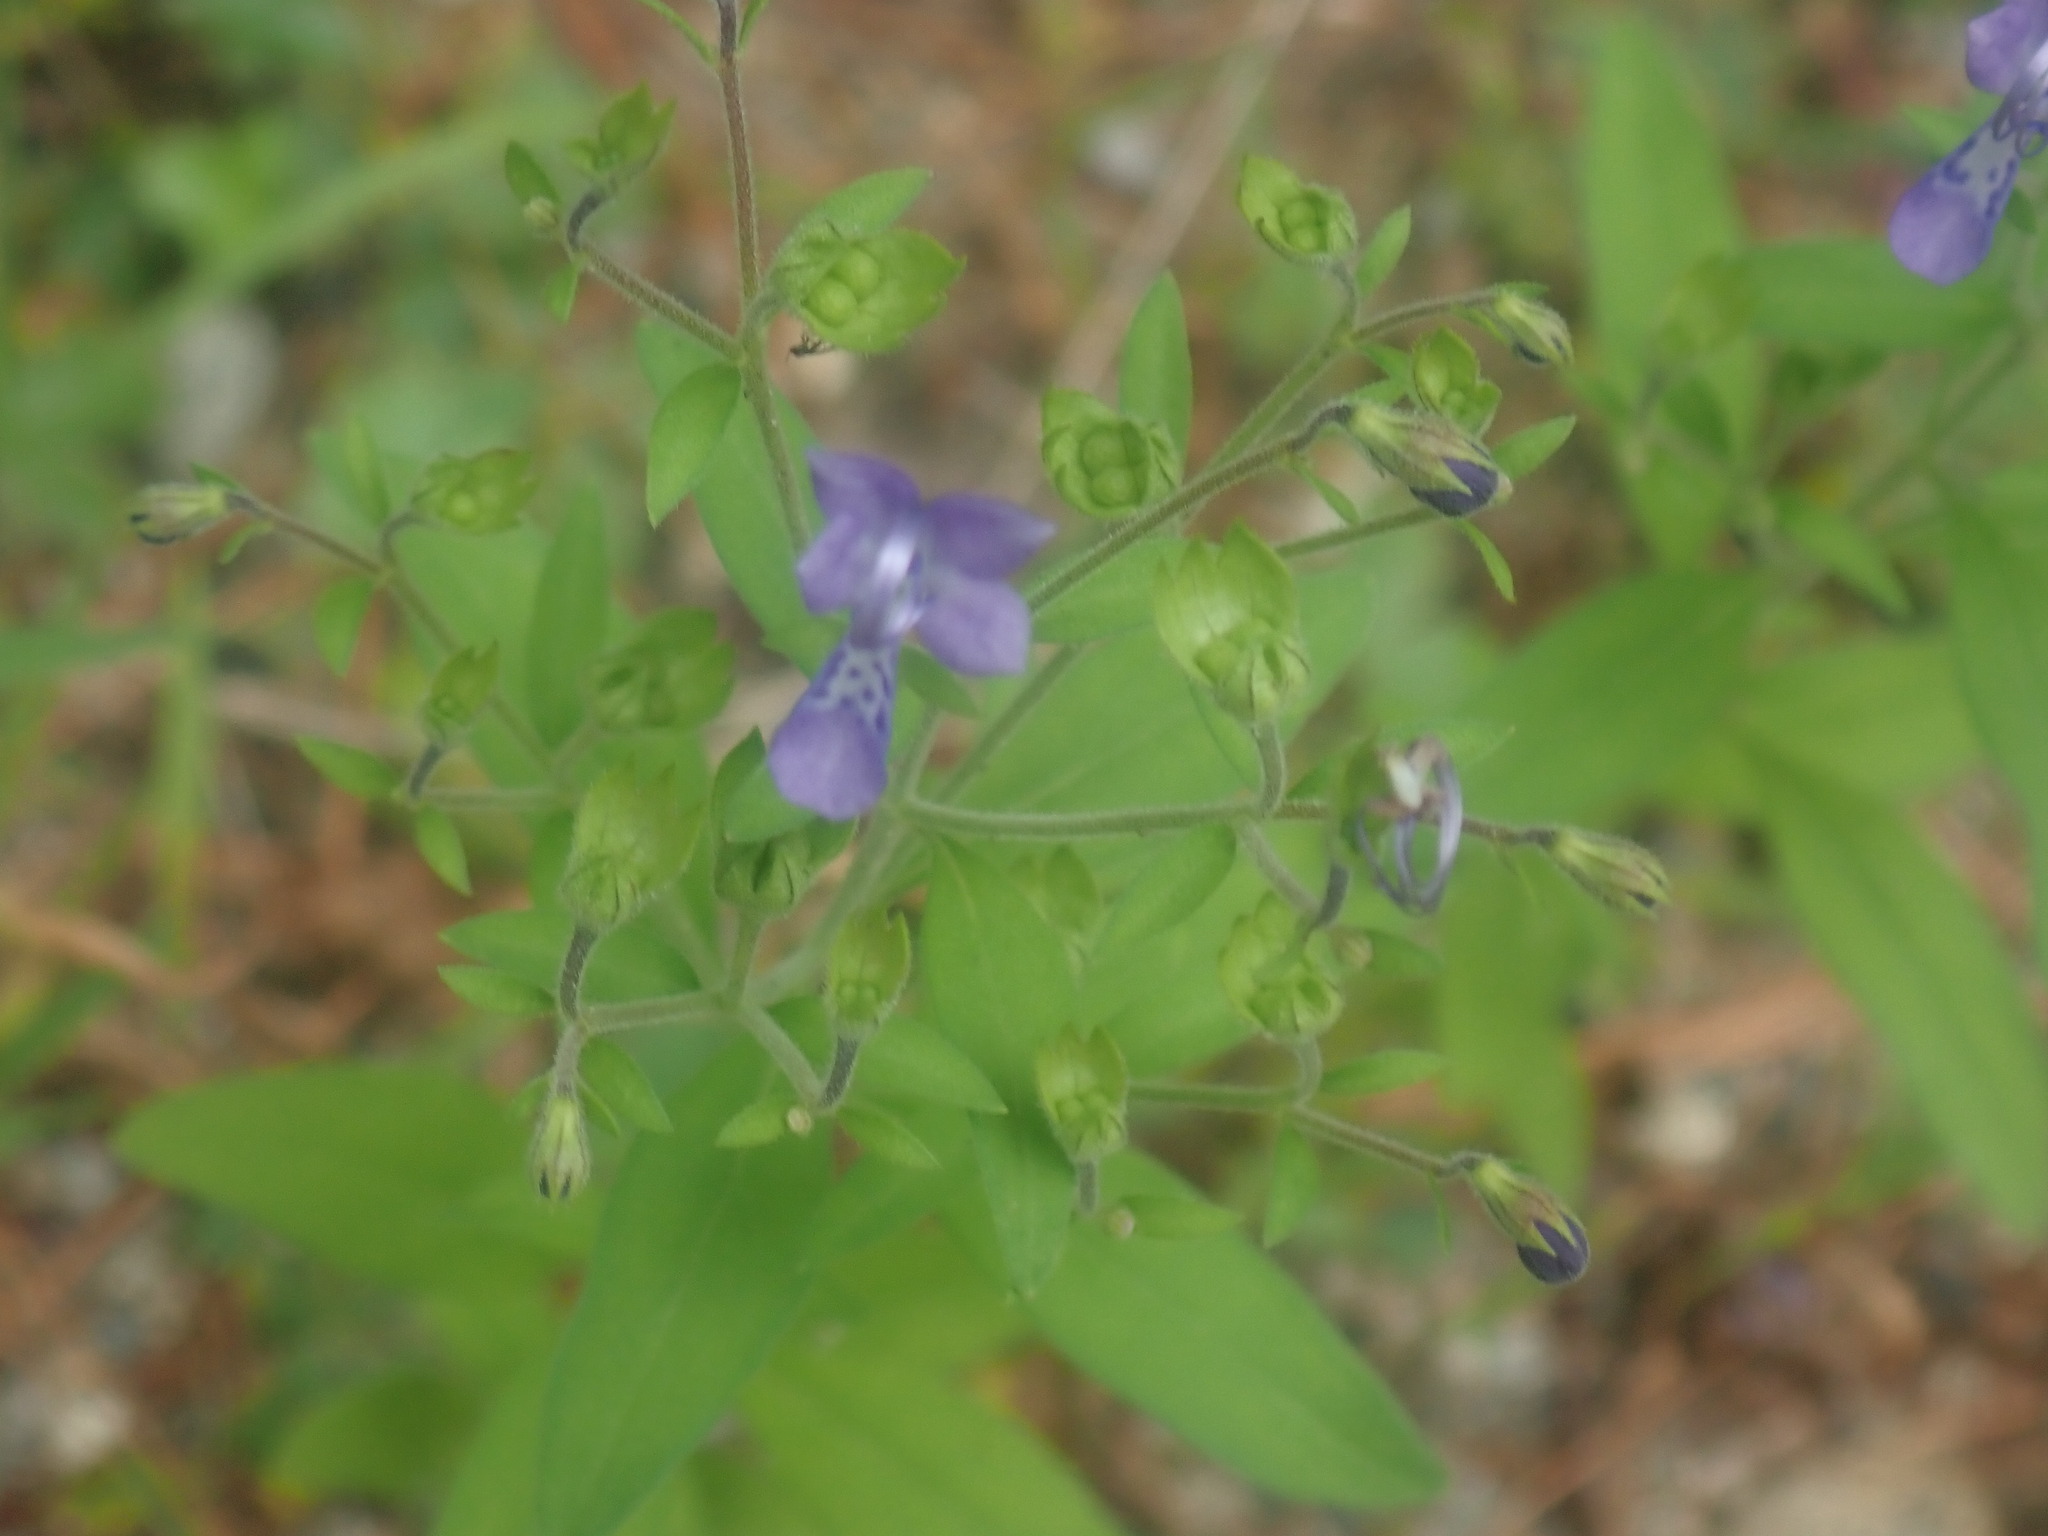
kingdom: Plantae
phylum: Tracheophyta
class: Magnoliopsida
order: Lamiales
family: Lamiaceae
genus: Trichostema
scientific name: Trichostema dichotomum
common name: Bastard pennyroyal
